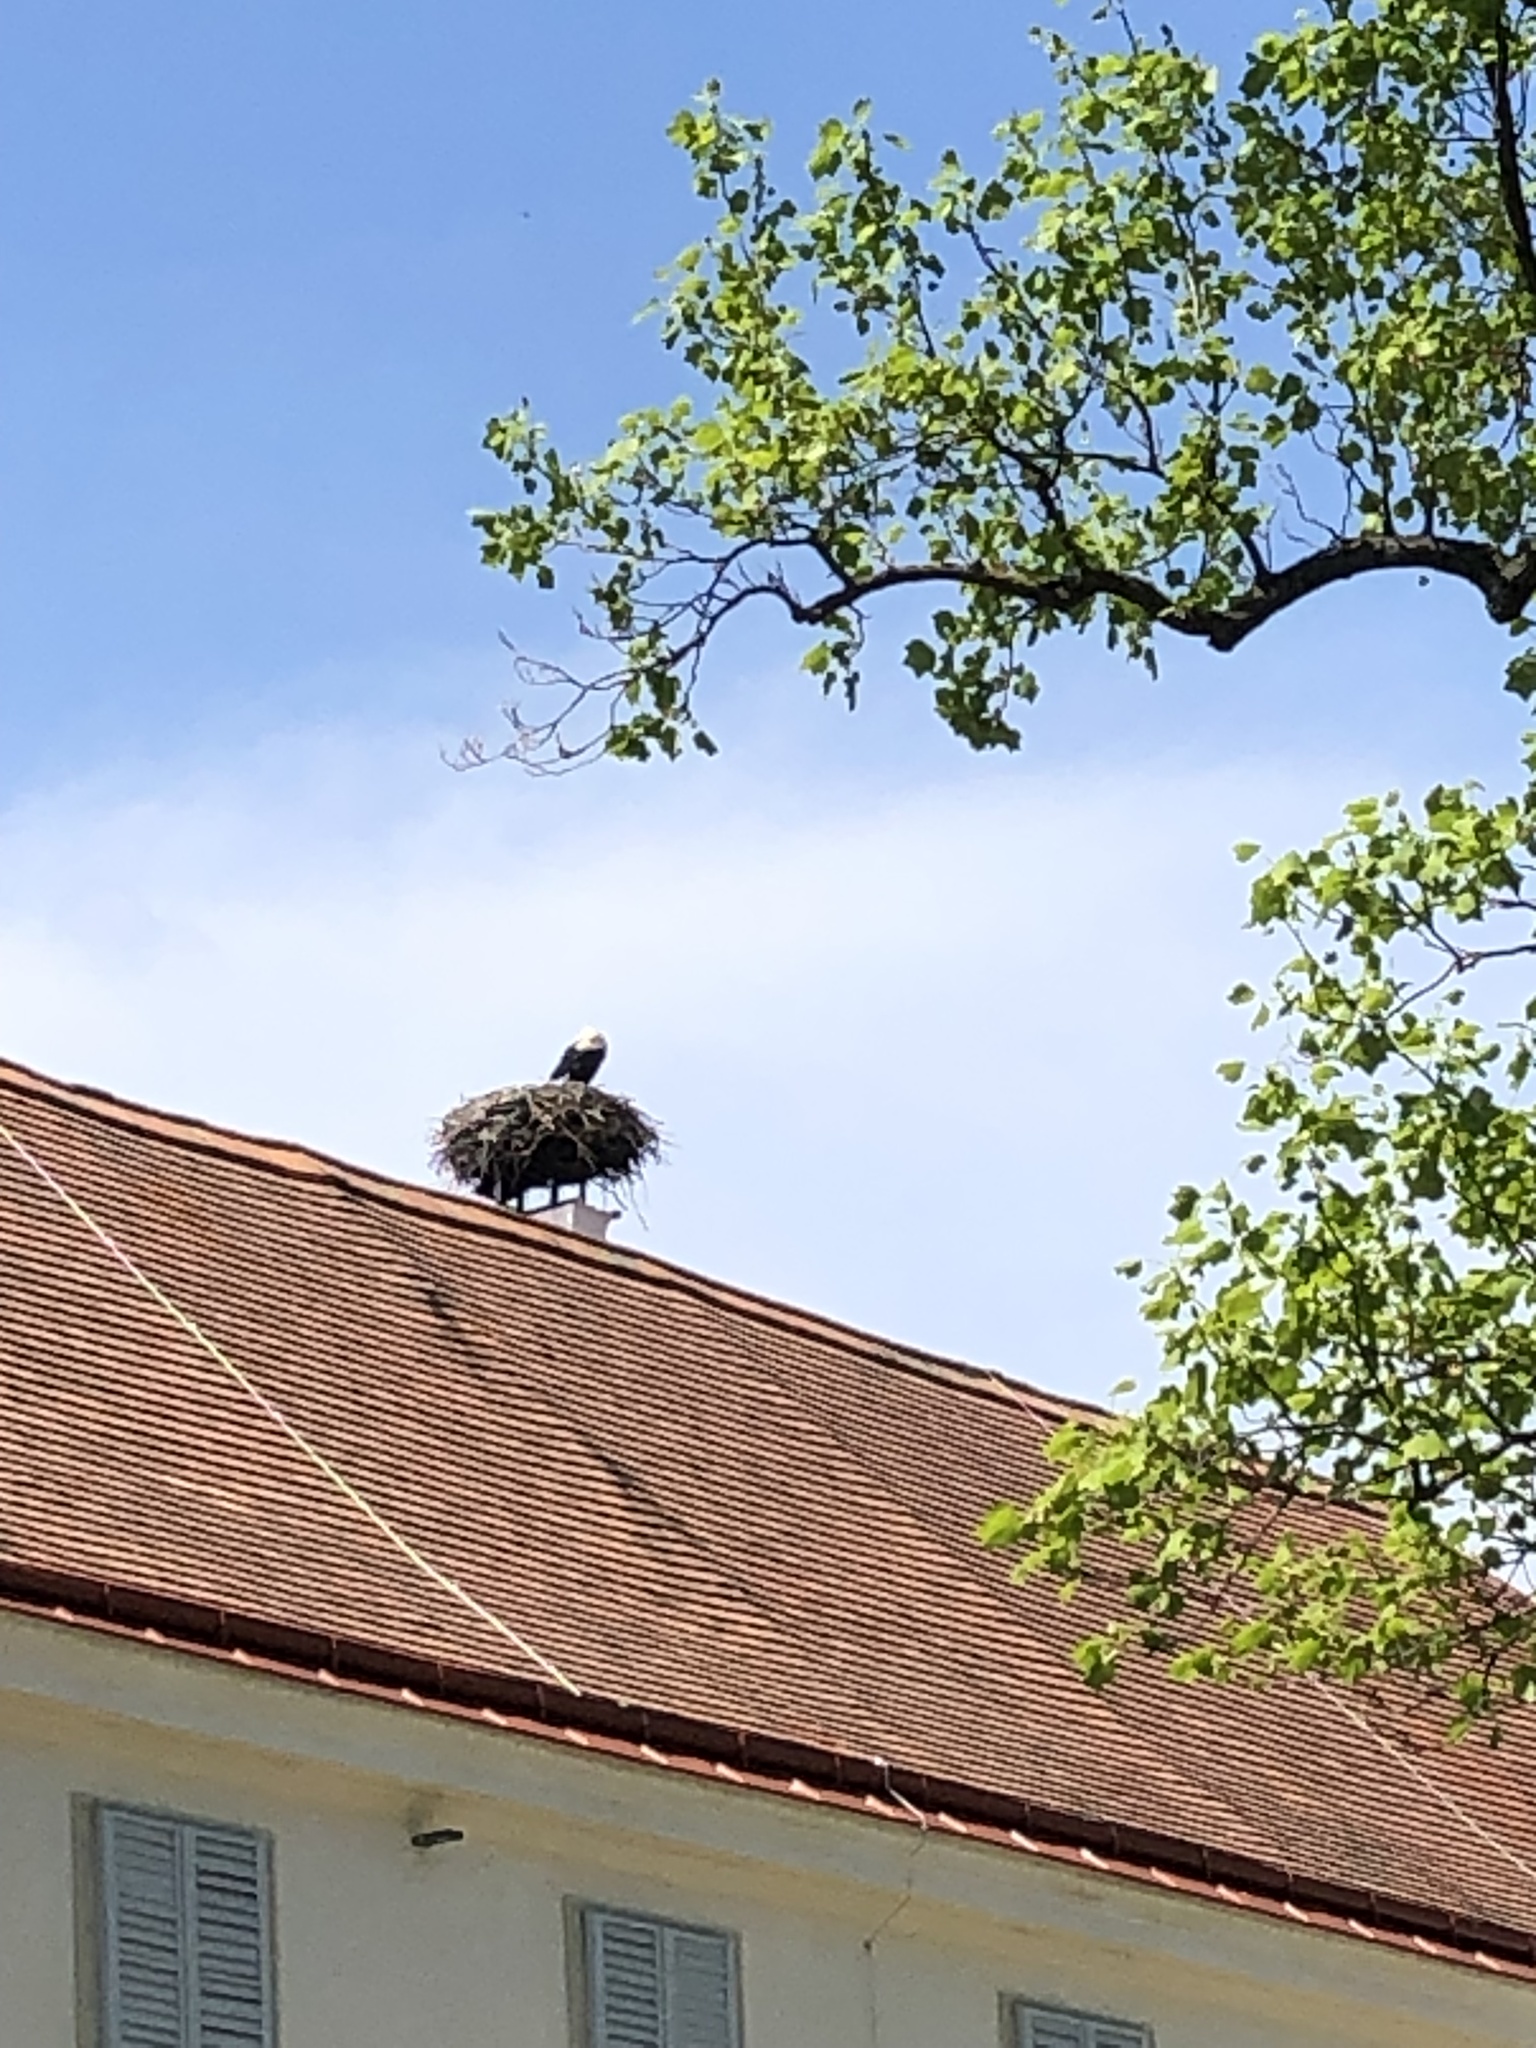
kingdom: Animalia
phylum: Chordata
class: Aves
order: Ciconiiformes
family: Ciconiidae
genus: Ciconia
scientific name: Ciconia ciconia
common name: White stork
